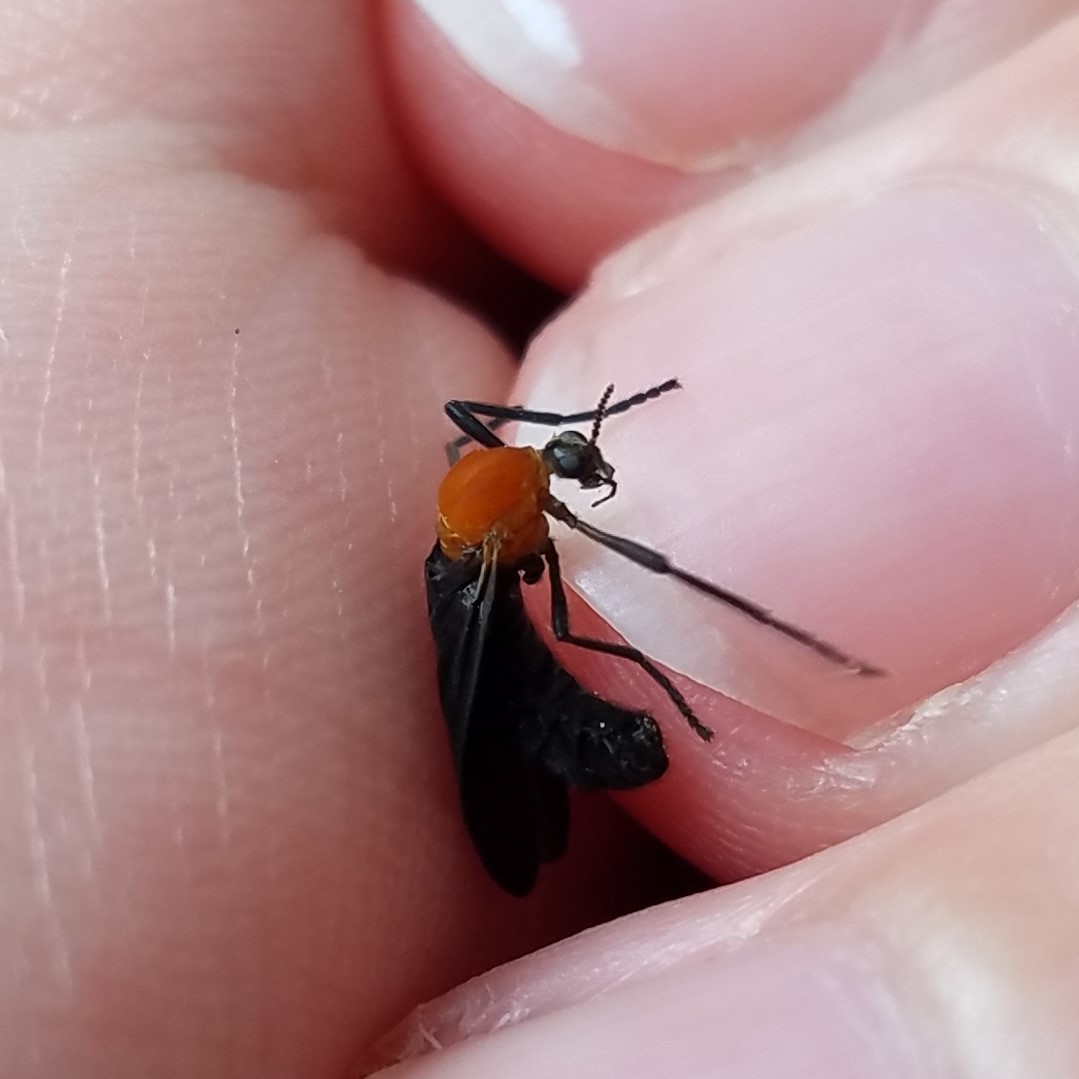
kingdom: Animalia
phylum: Arthropoda
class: Insecta
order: Diptera
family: Bibionidae
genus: Plecia
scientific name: Plecia americana
